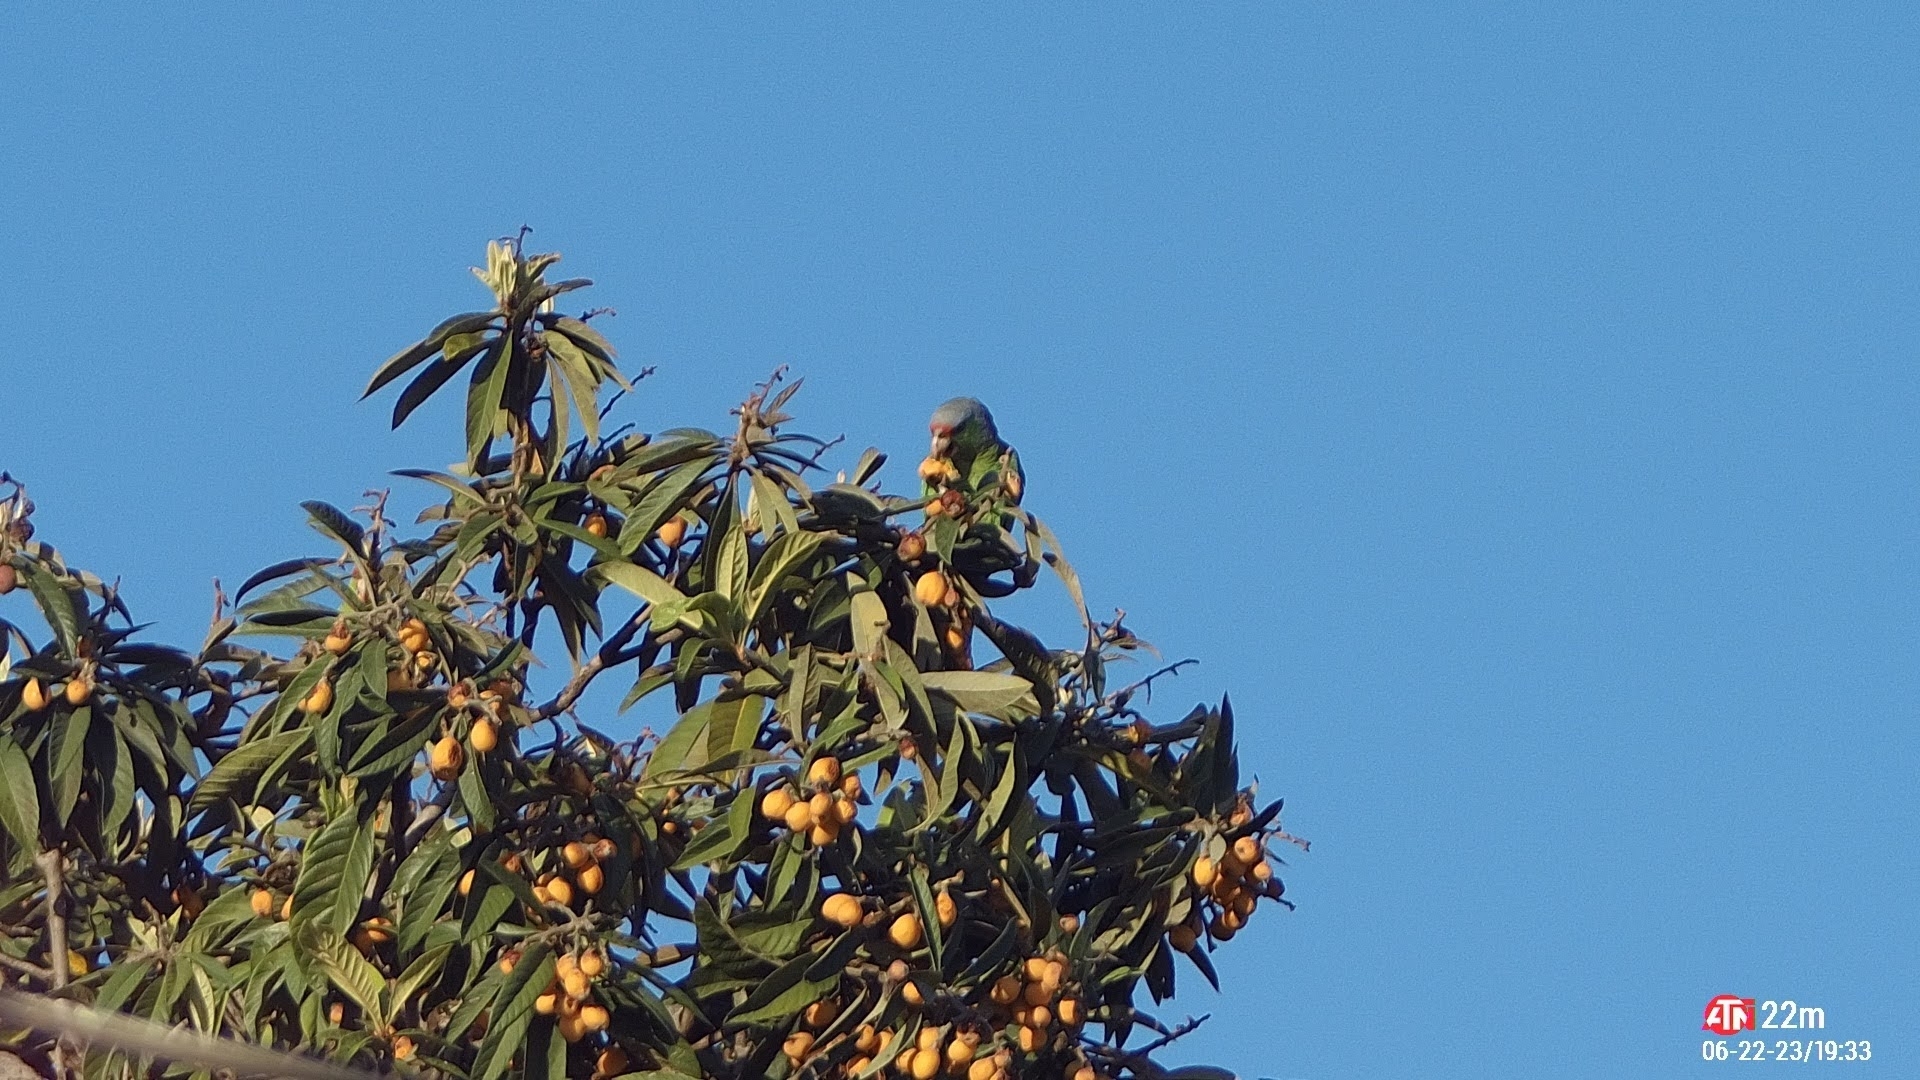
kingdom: Animalia
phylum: Chordata
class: Aves
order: Psittaciformes
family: Psittacidae
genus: Amazona
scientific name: Amazona finschi
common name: Lilac-crowned amazon
